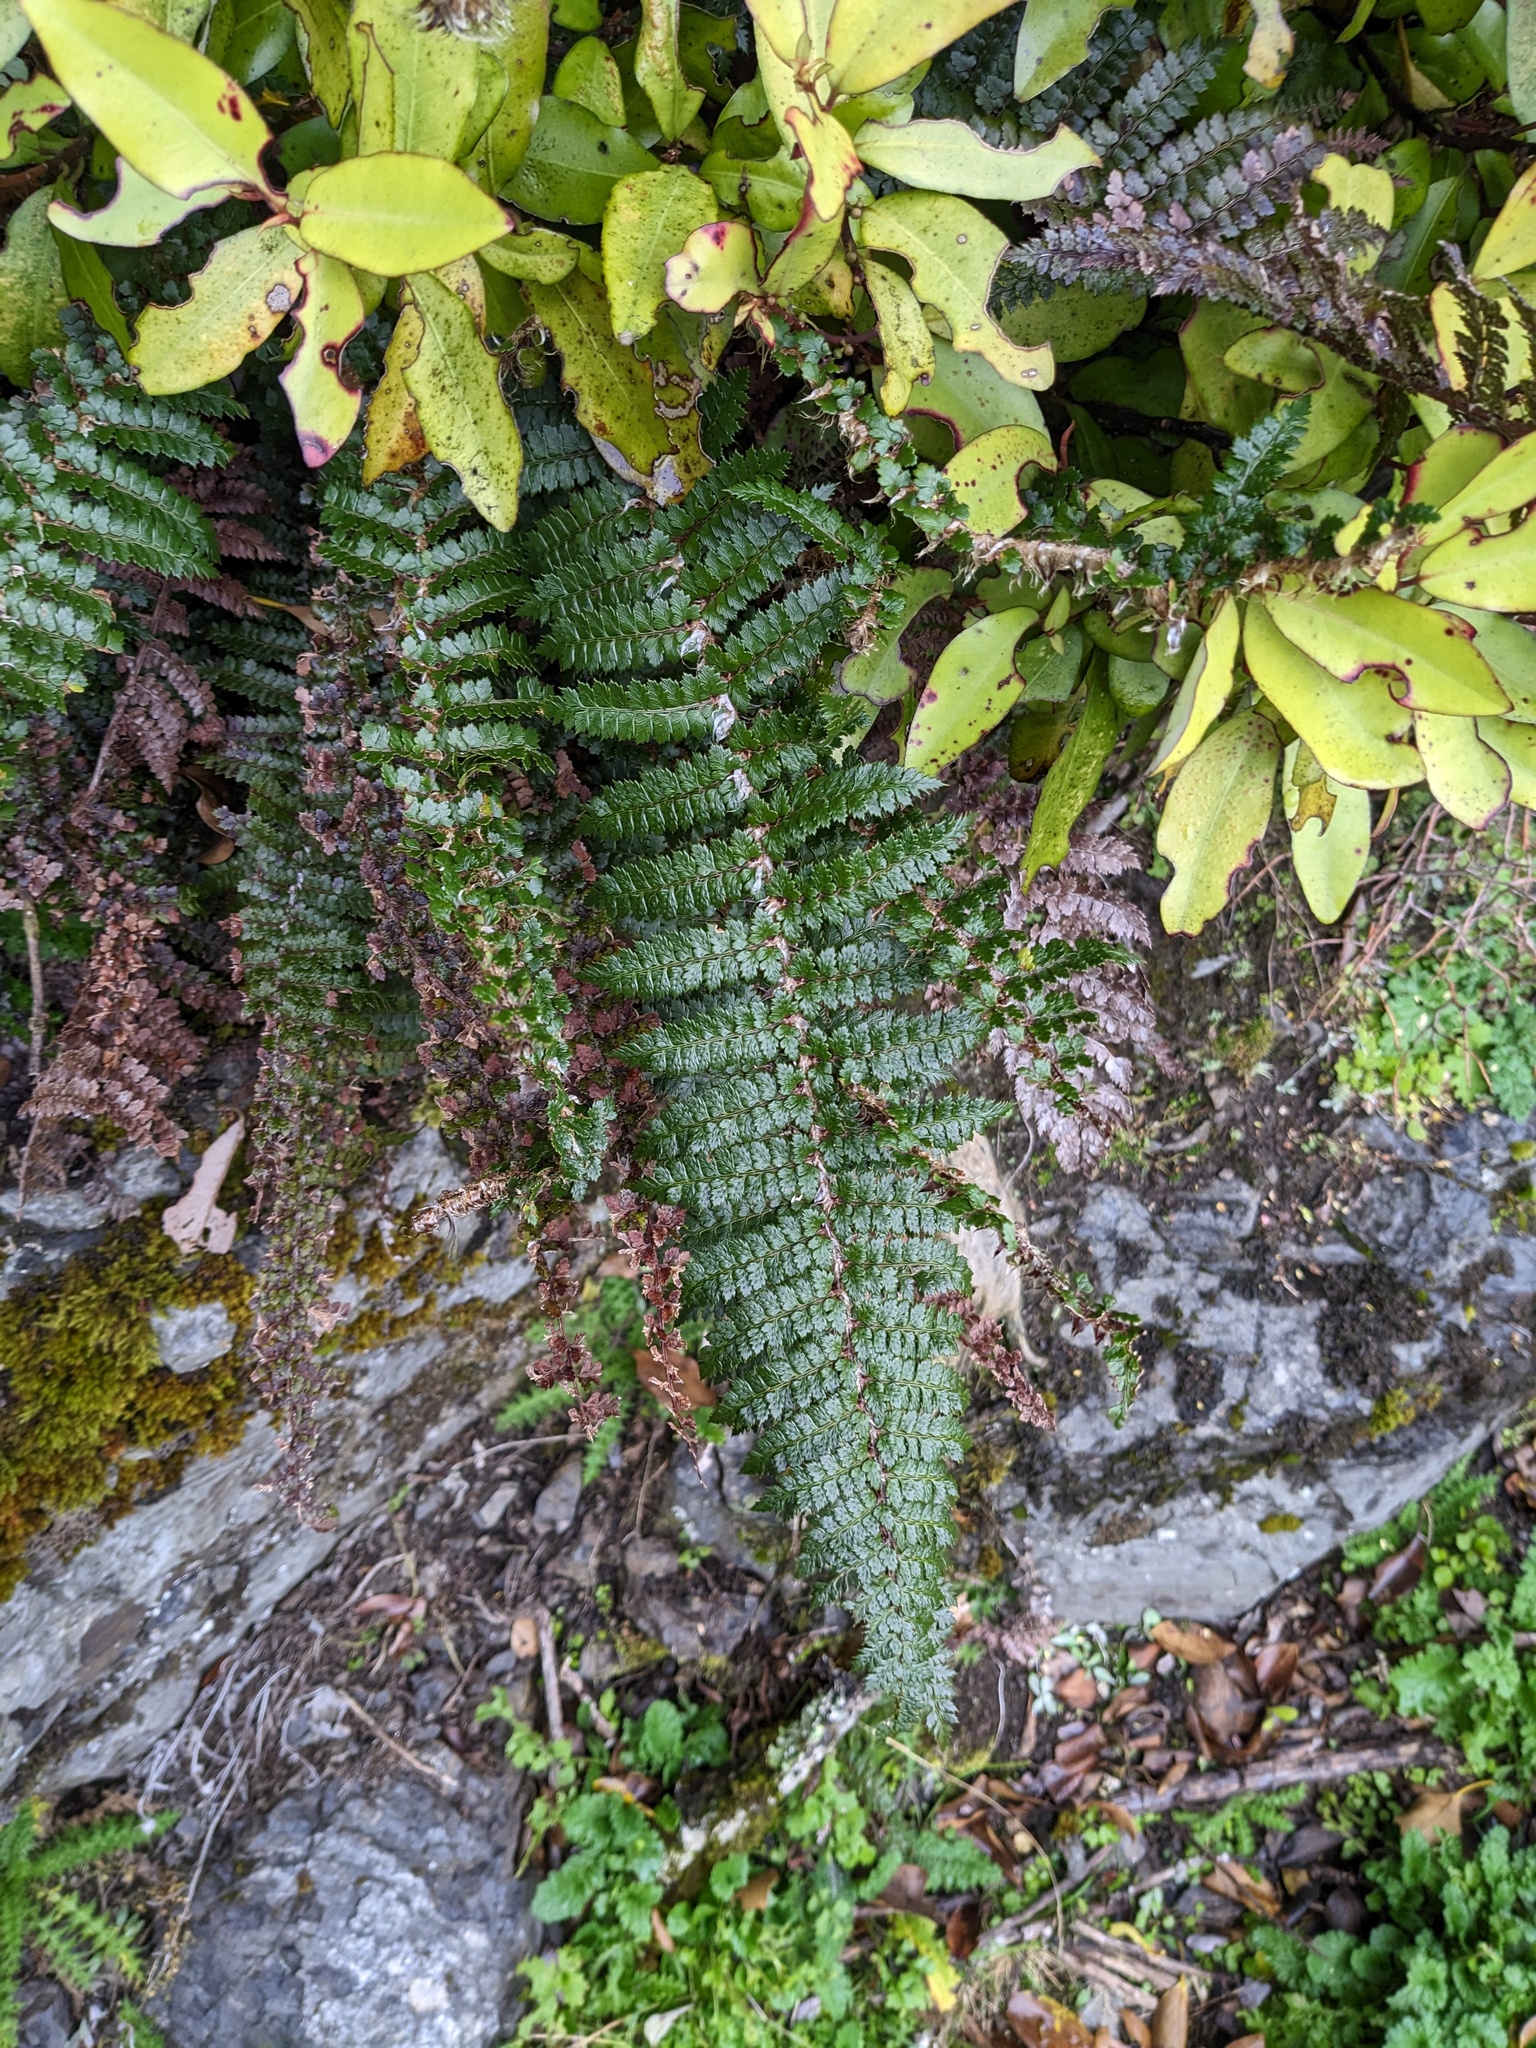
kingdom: Plantae
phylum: Tracheophyta
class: Polypodiopsida
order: Polypodiales
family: Dryopteridaceae
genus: Polystichum
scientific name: Polystichum vestitum
